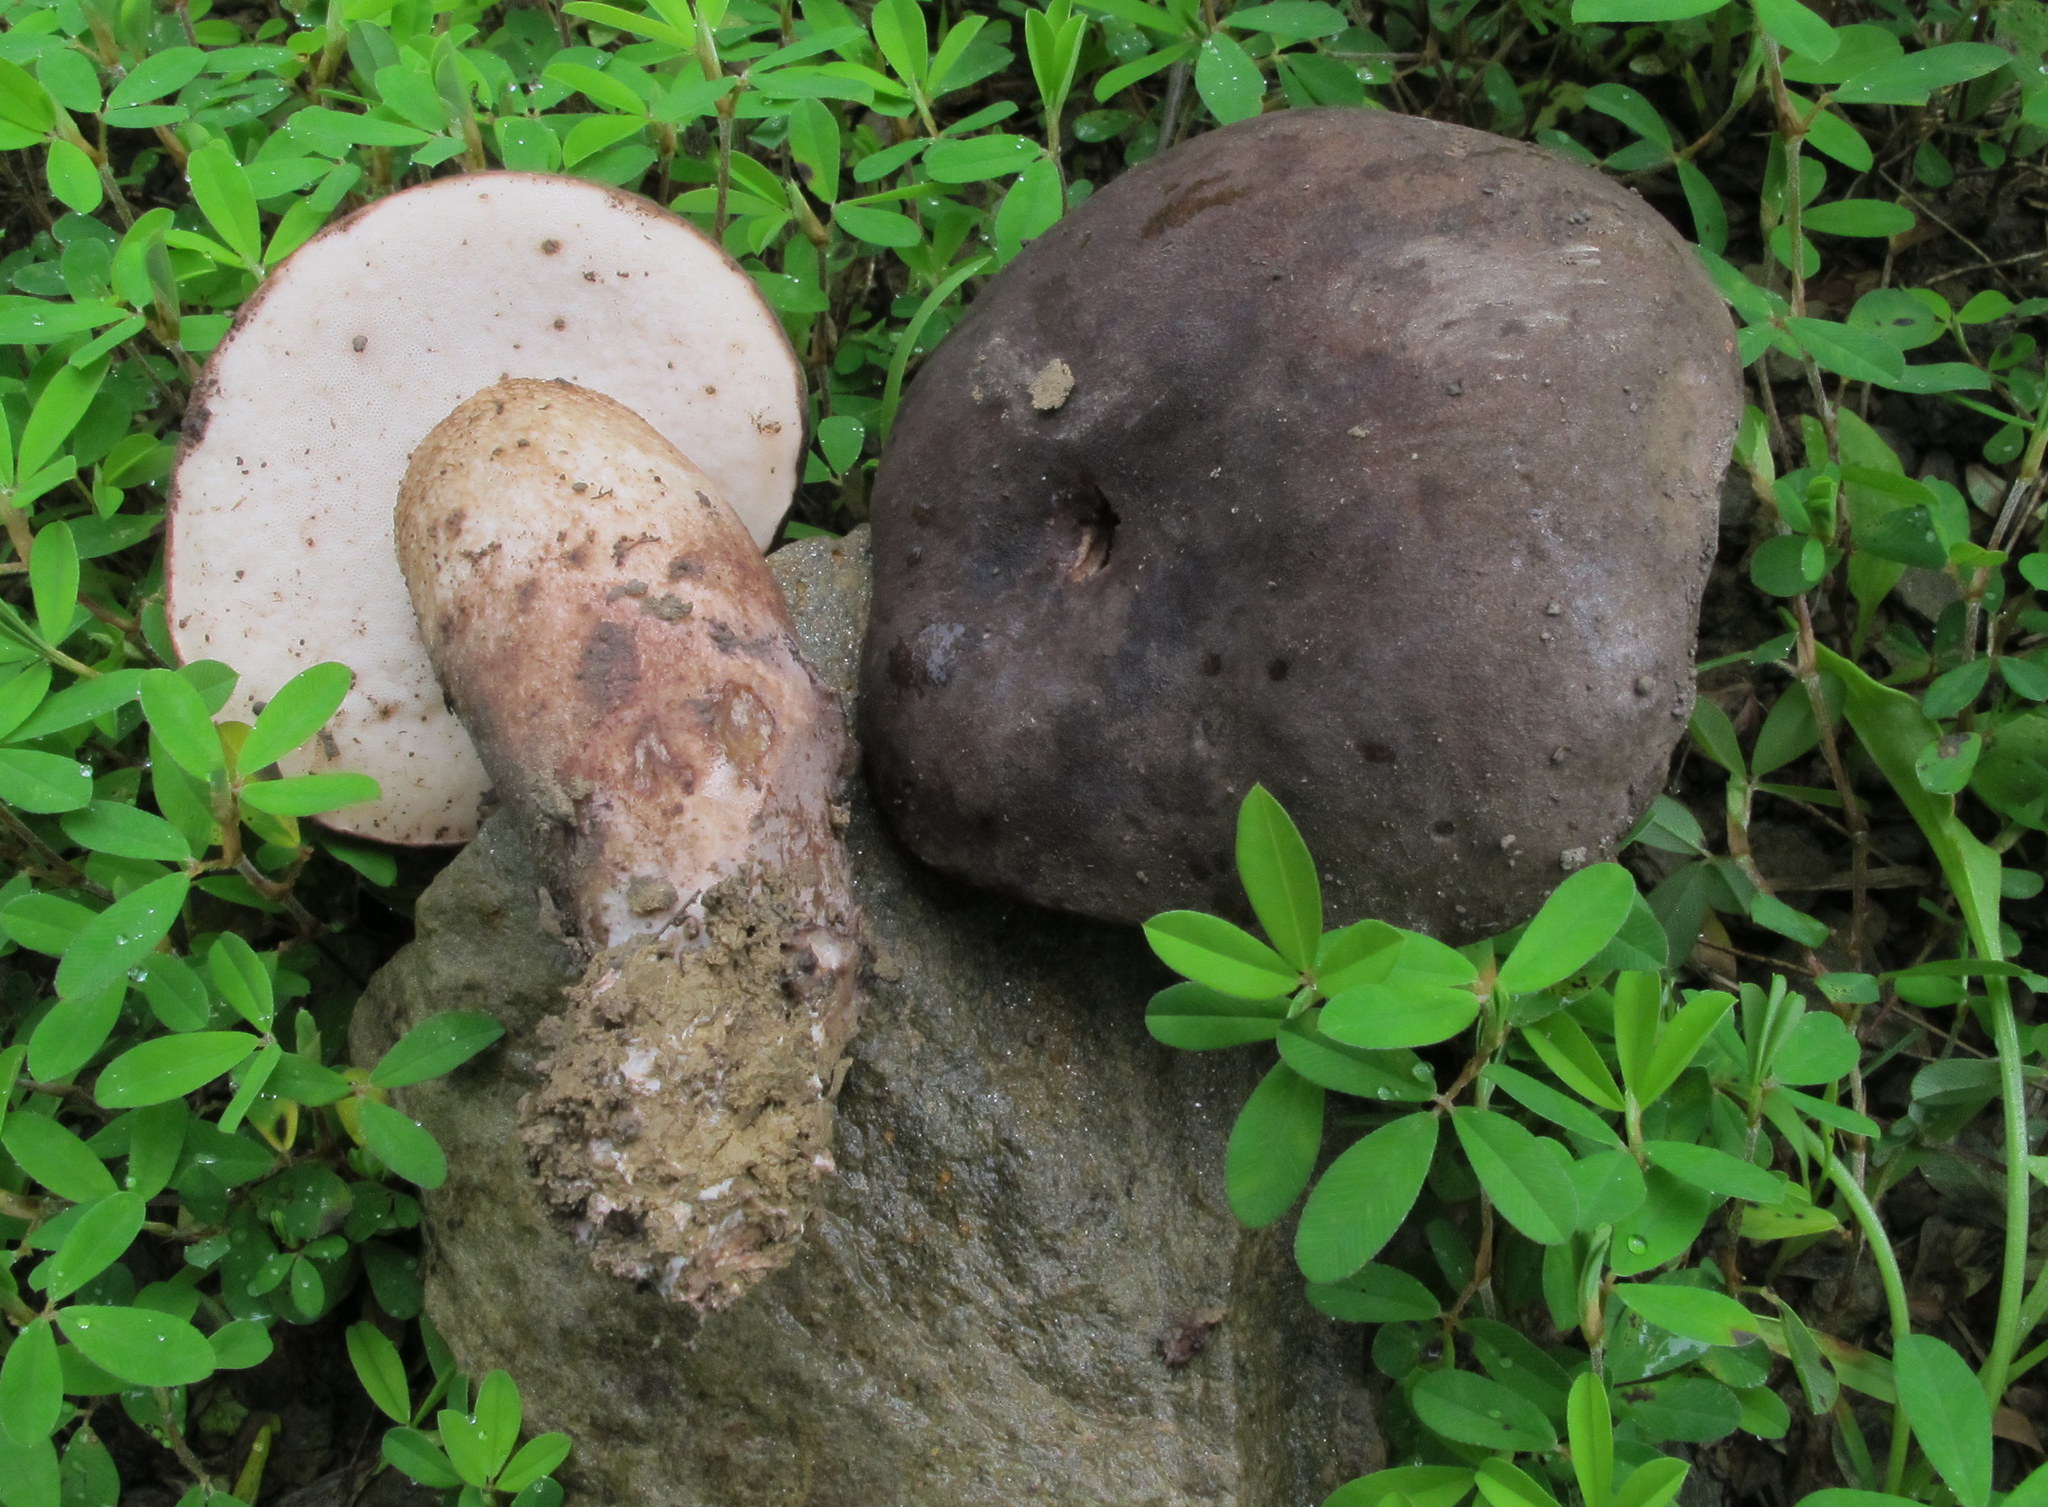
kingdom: Fungi
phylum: Basidiomycota
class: Agaricomycetes
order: Boletales
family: Boletaceae
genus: Tylopilus
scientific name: Tylopilus alboater
